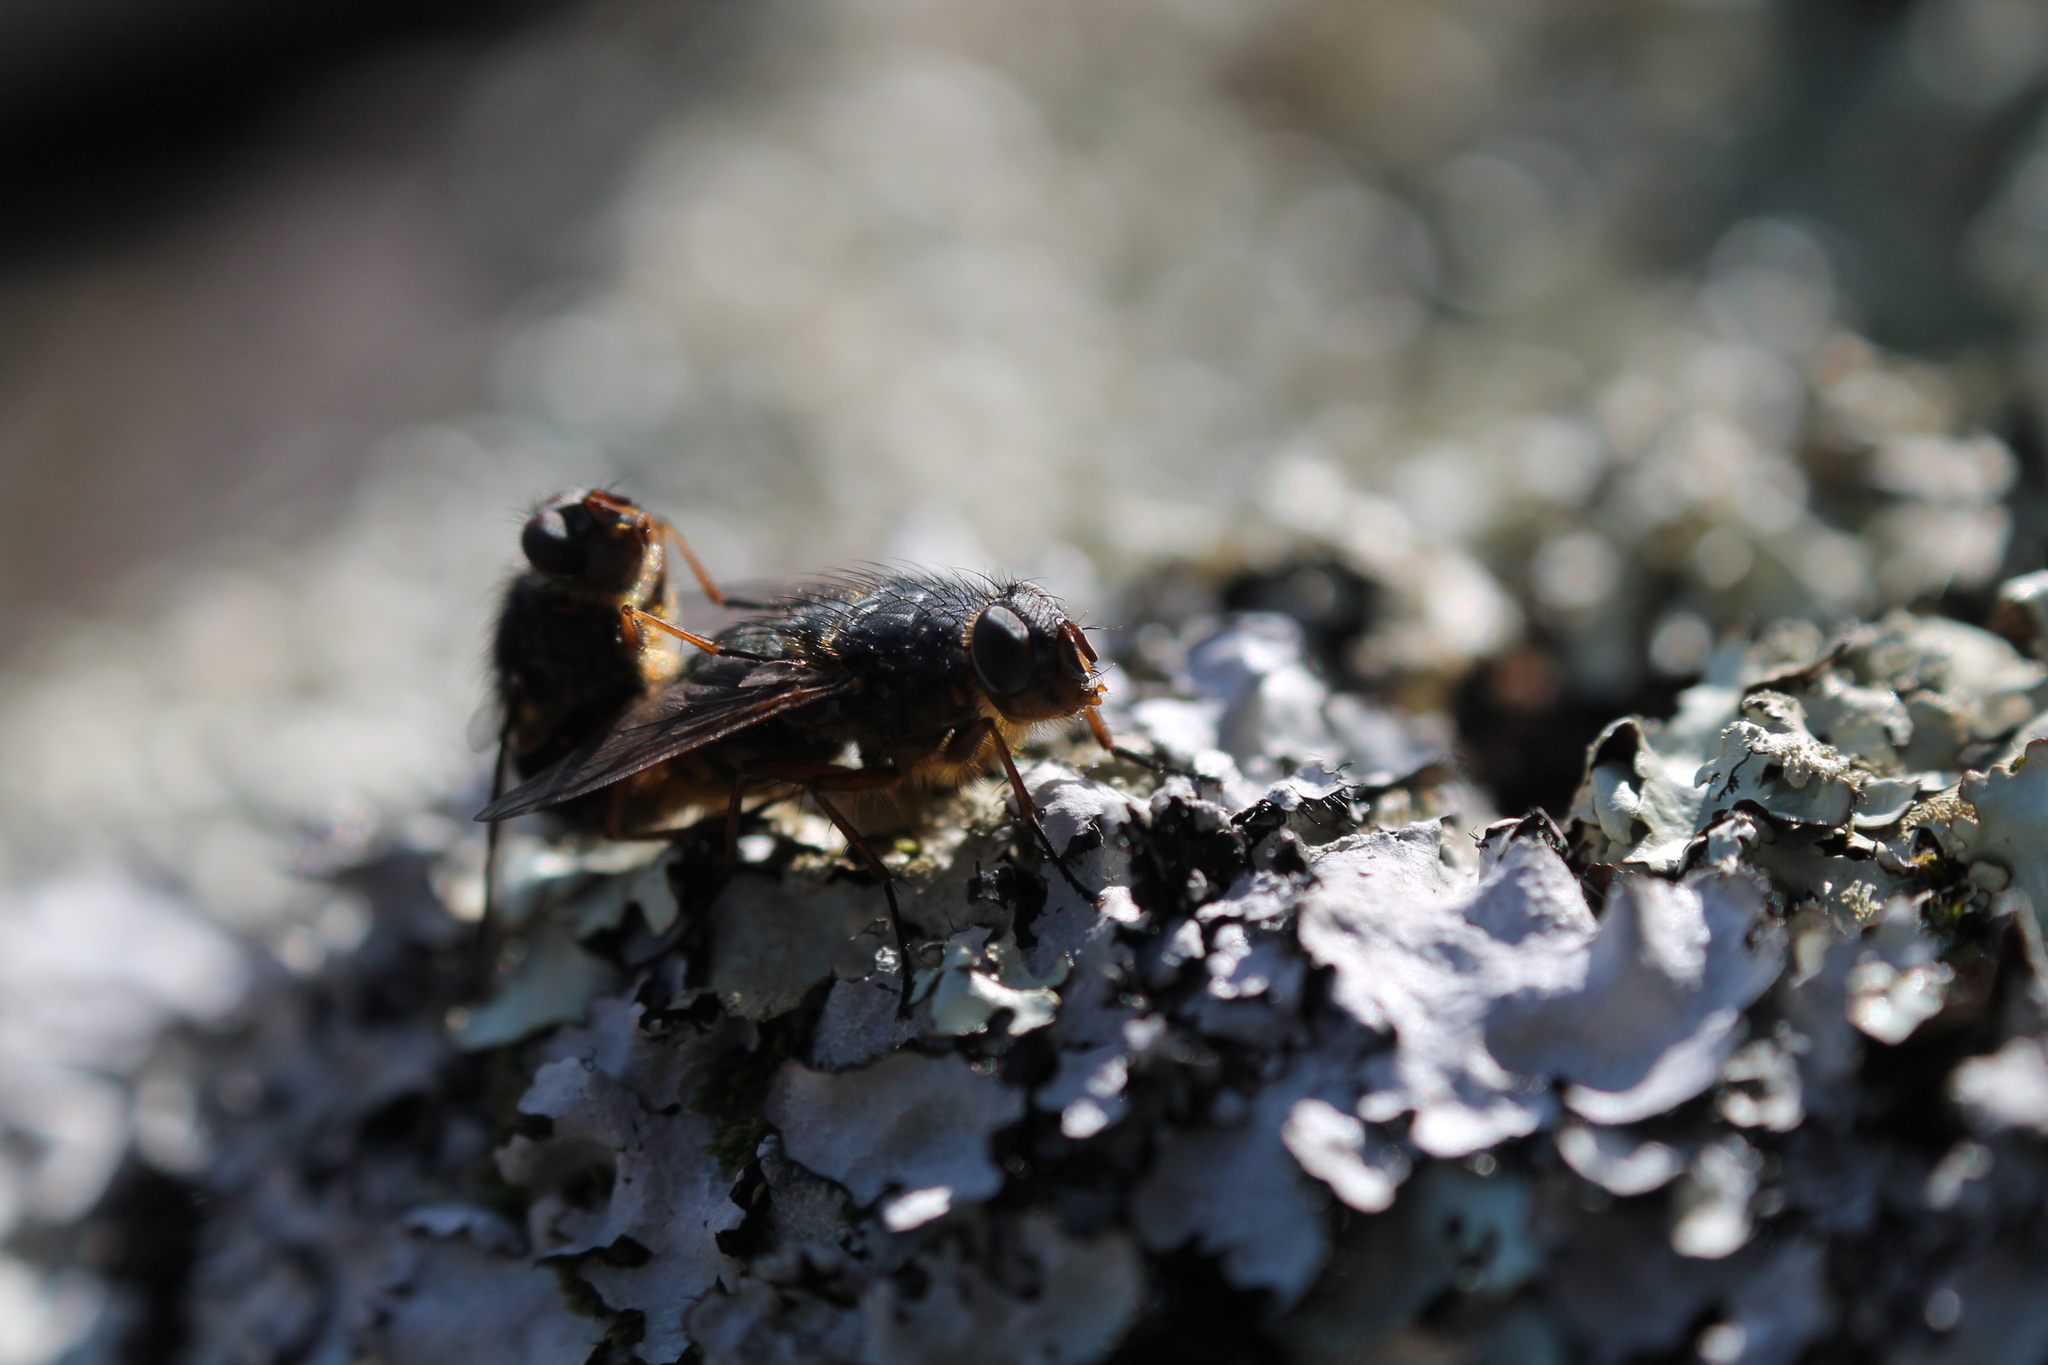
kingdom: Animalia
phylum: Arthropoda
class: Insecta
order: Diptera
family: Calliphoridae
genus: Calliphora
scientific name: Calliphora hilli
